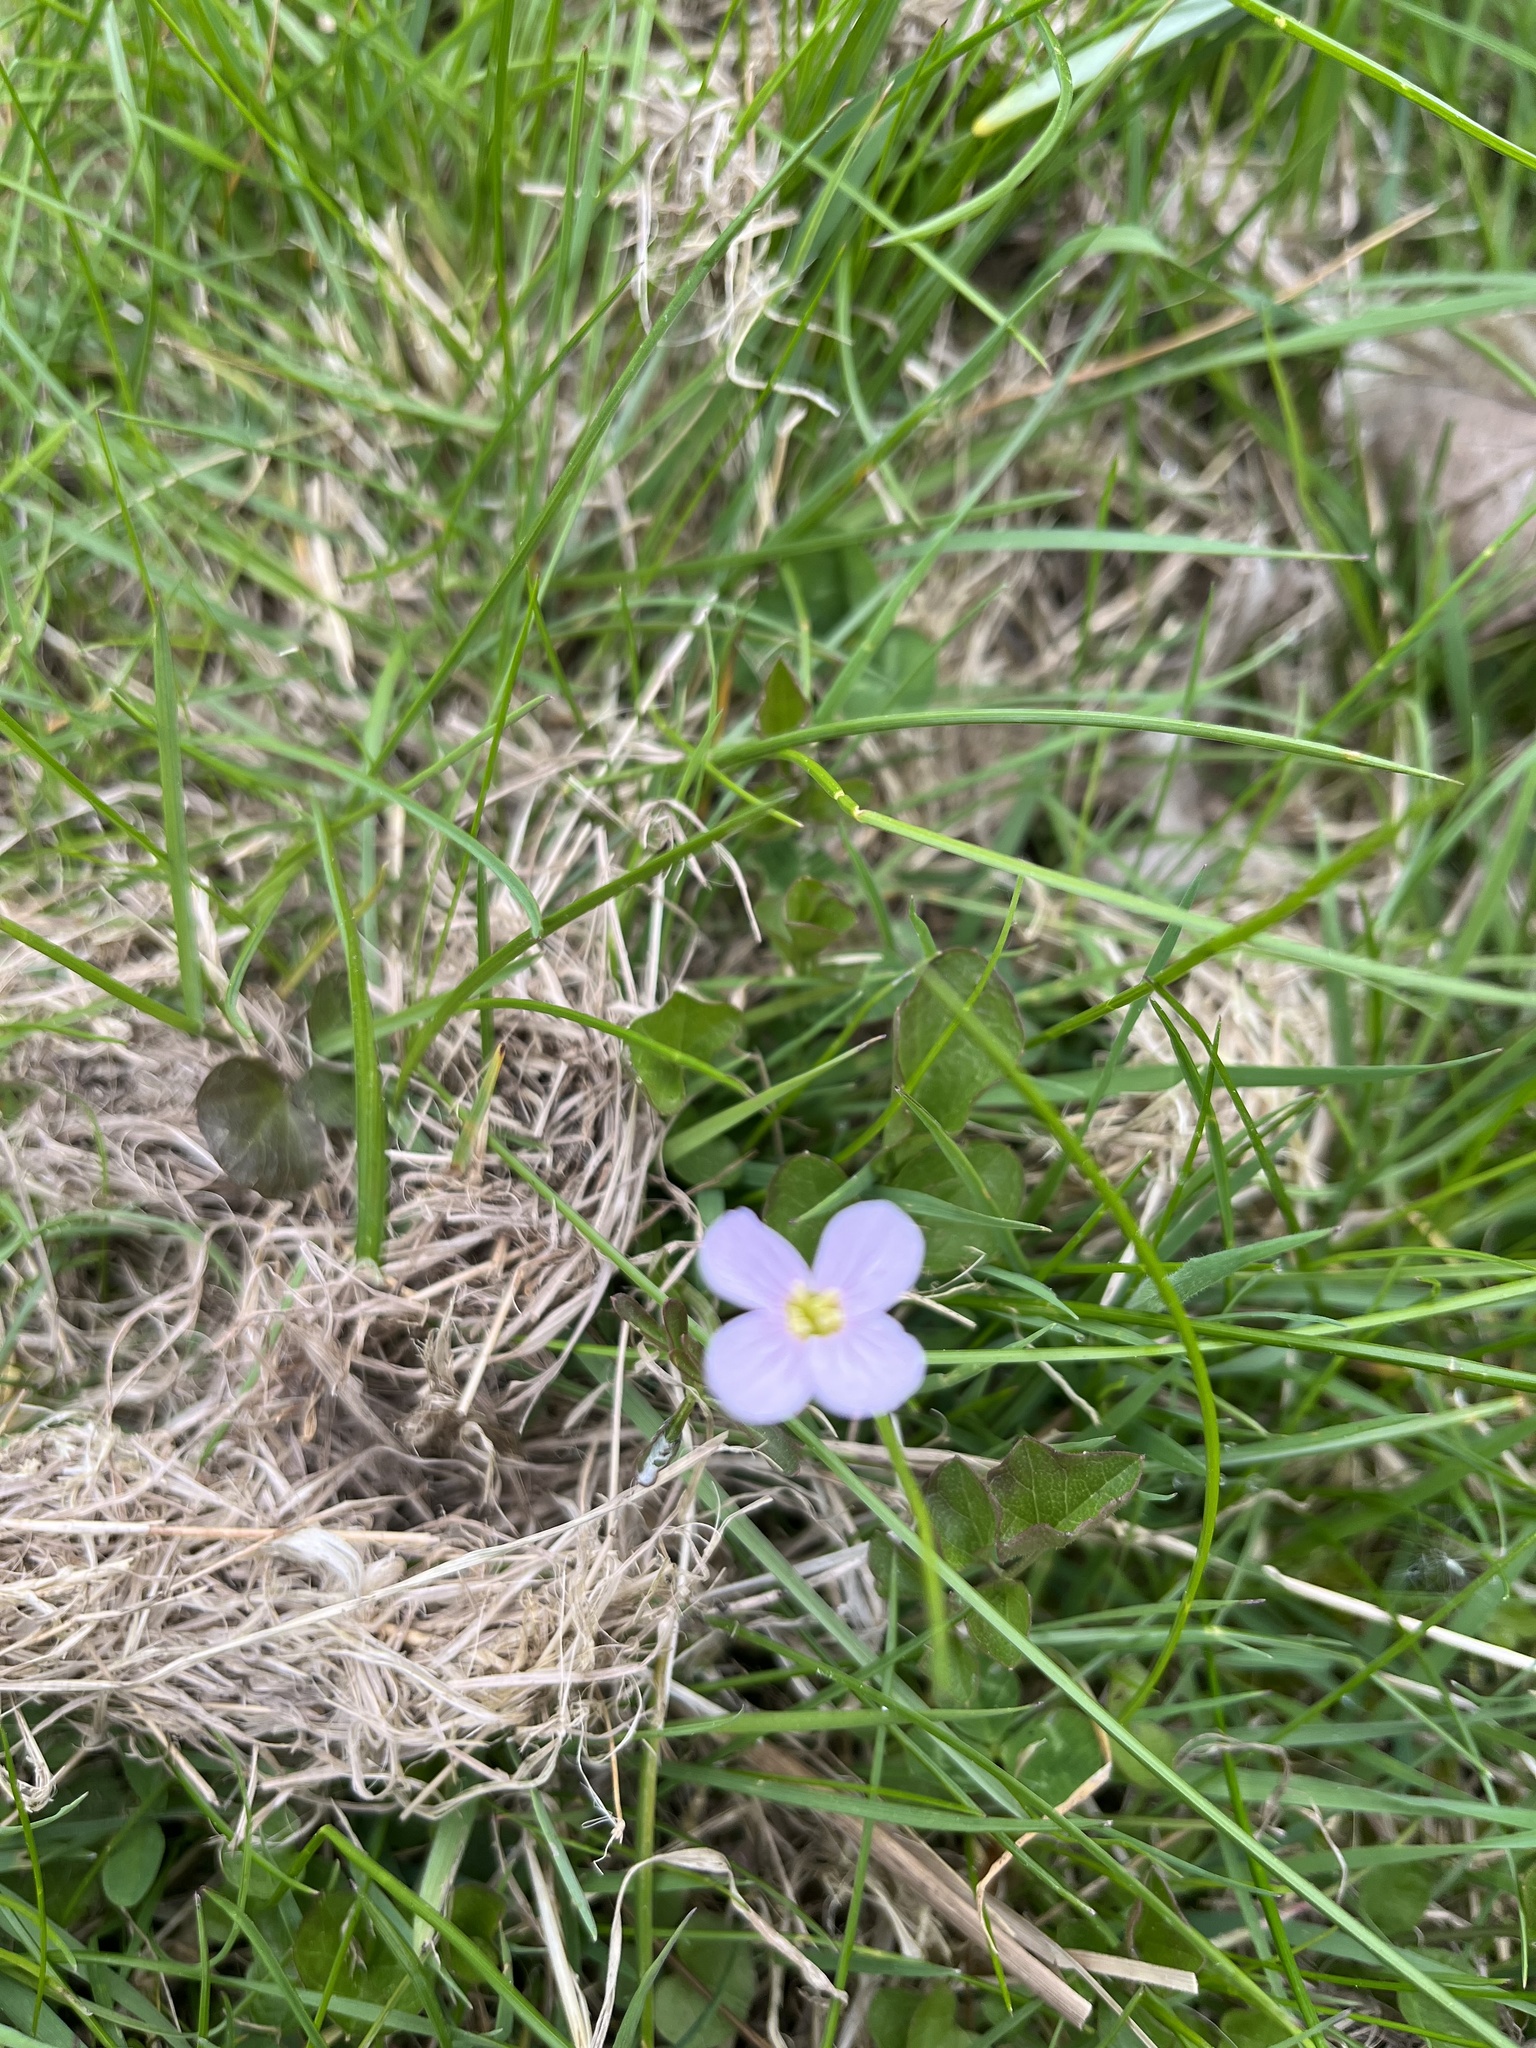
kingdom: Plantae
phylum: Tracheophyta
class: Magnoliopsida
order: Brassicales
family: Brassicaceae
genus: Cardamine
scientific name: Cardamine pratensis
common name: Cuckoo flower
